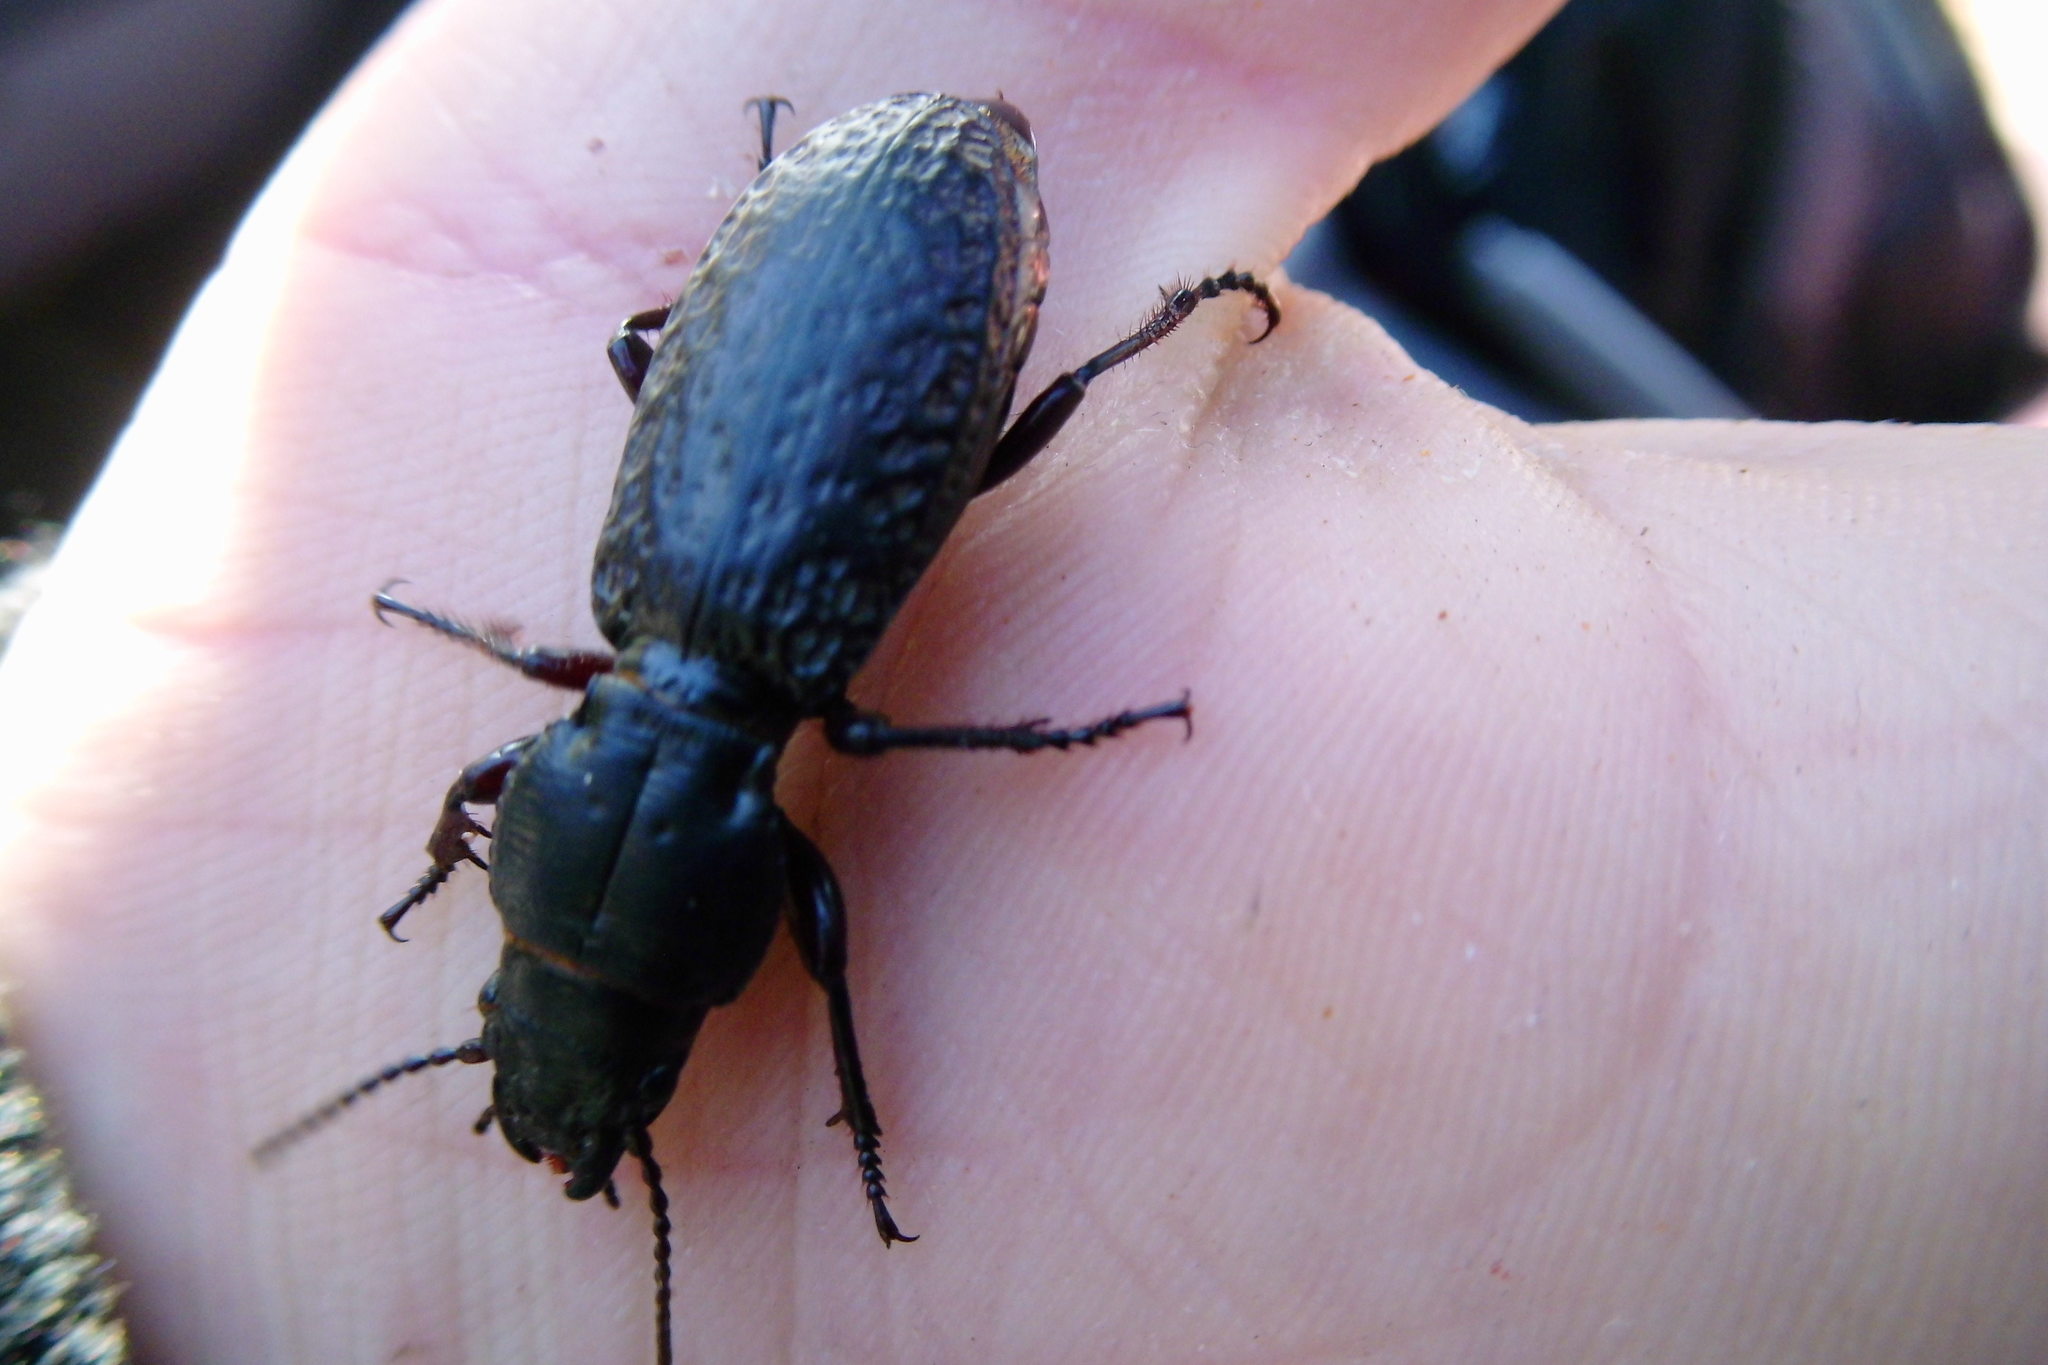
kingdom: Animalia
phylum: Arthropoda
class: Insecta
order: Coleoptera
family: Carabidae
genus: Mecodema
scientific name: Mecodema crenicolle
